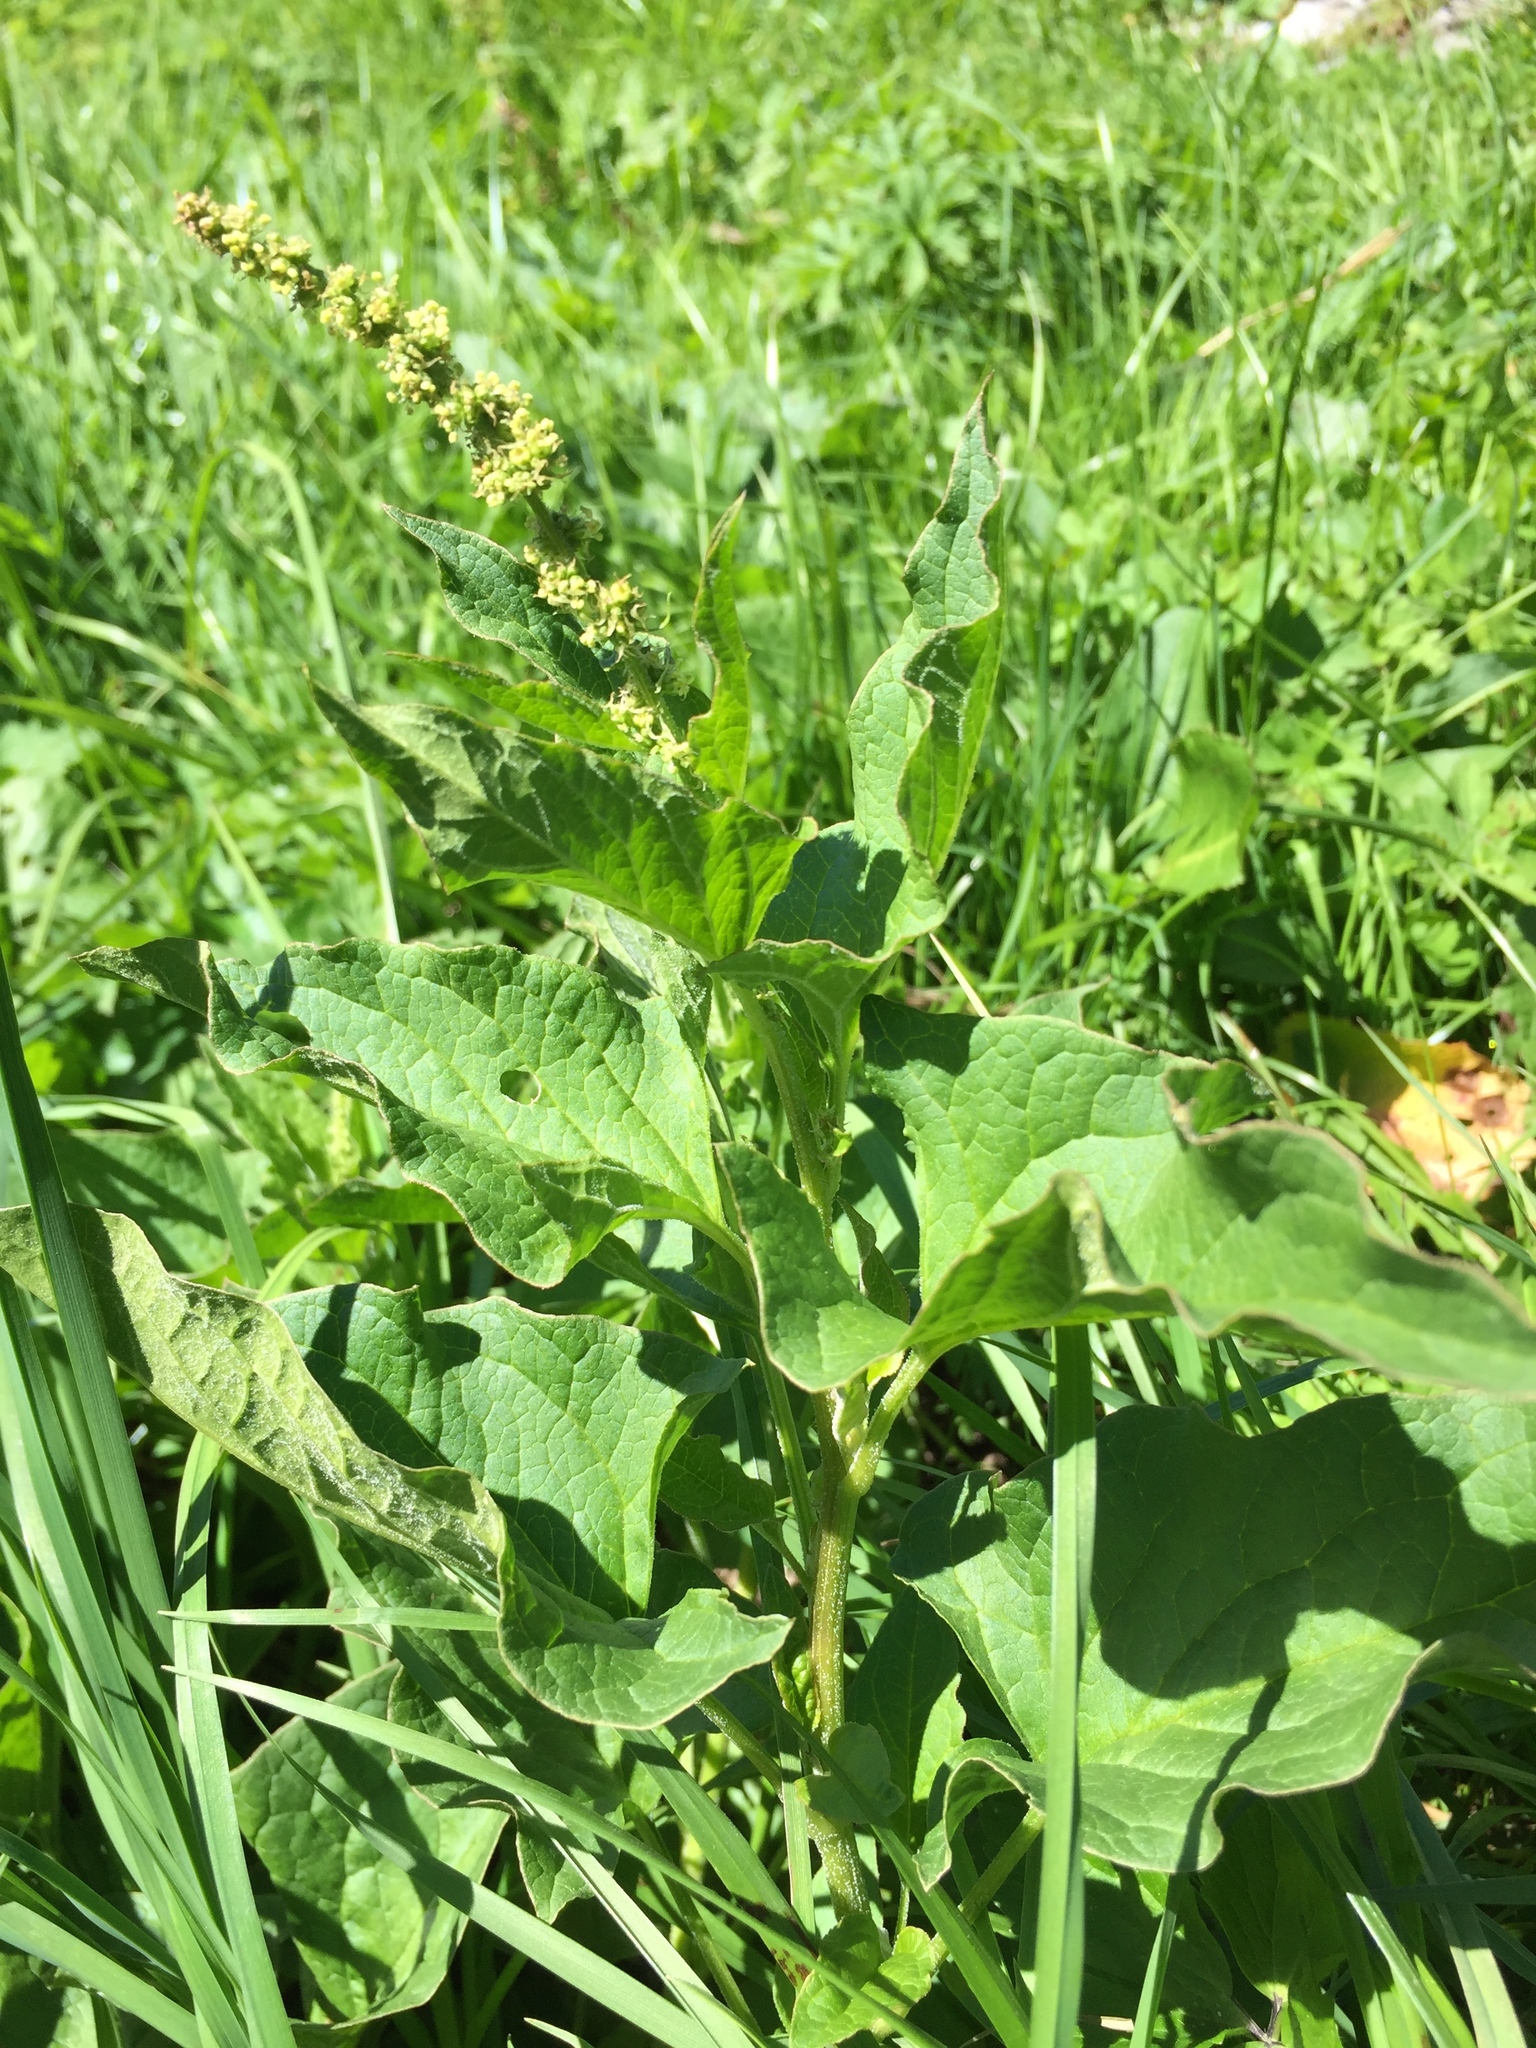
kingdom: Plantae
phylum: Tracheophyta
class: Magnoliopsida
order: Caryophyllales
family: Amaranthaceae
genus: Blitum
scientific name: Blitum bonus-henricus
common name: Good king henry
